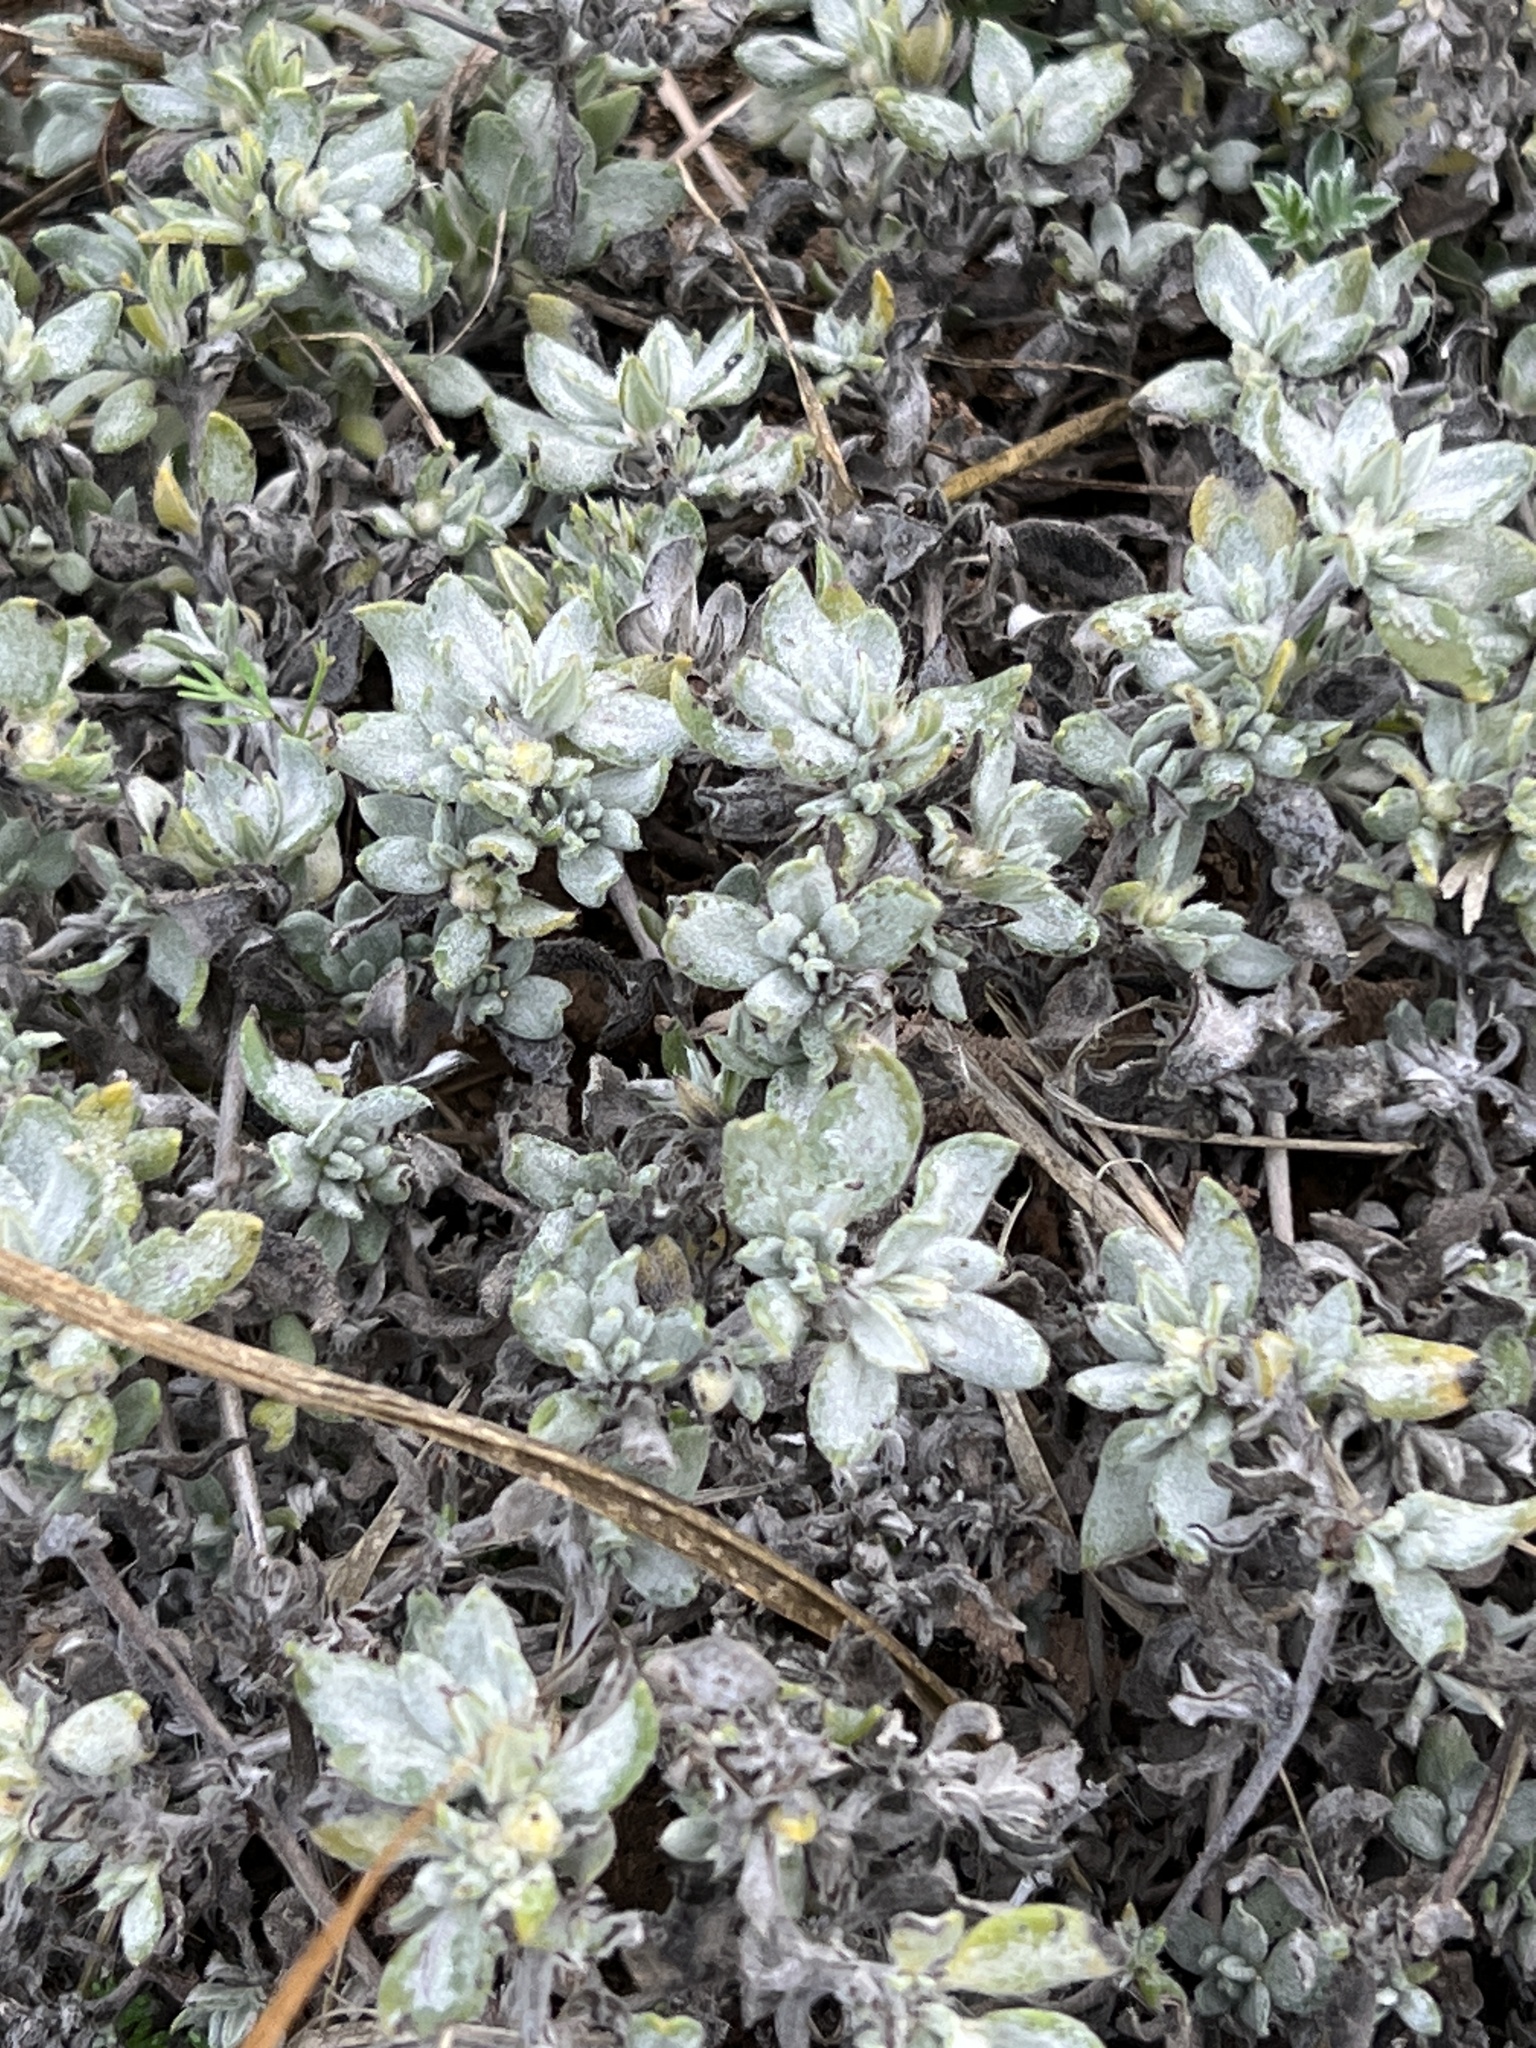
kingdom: Plantae
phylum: Tracheophyta
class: Magnoliopsida
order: Boraginales
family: Ehretiaceae
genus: Tiquilia
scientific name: Tiquilia canescens
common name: Hairy tiquilia
